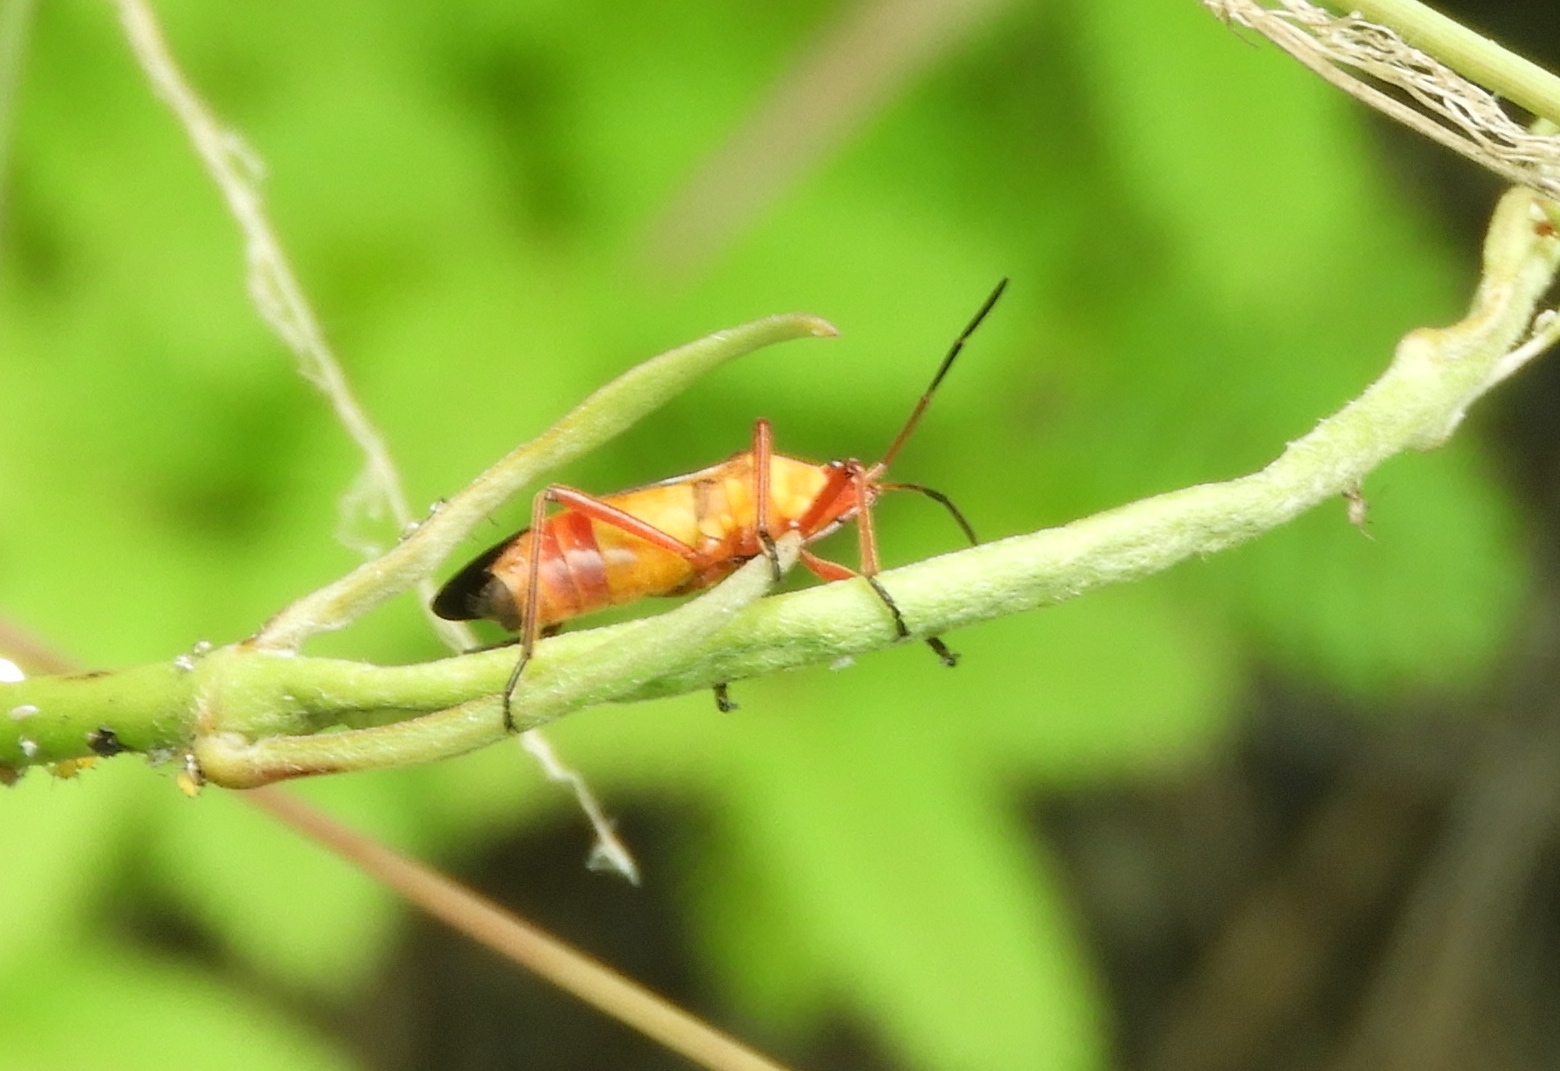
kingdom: Animalia
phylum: Arthropoda
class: Insecta
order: Hemiptera
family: Lygaeidae
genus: Oncopeltus
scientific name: Oncopeltus guttaloides
